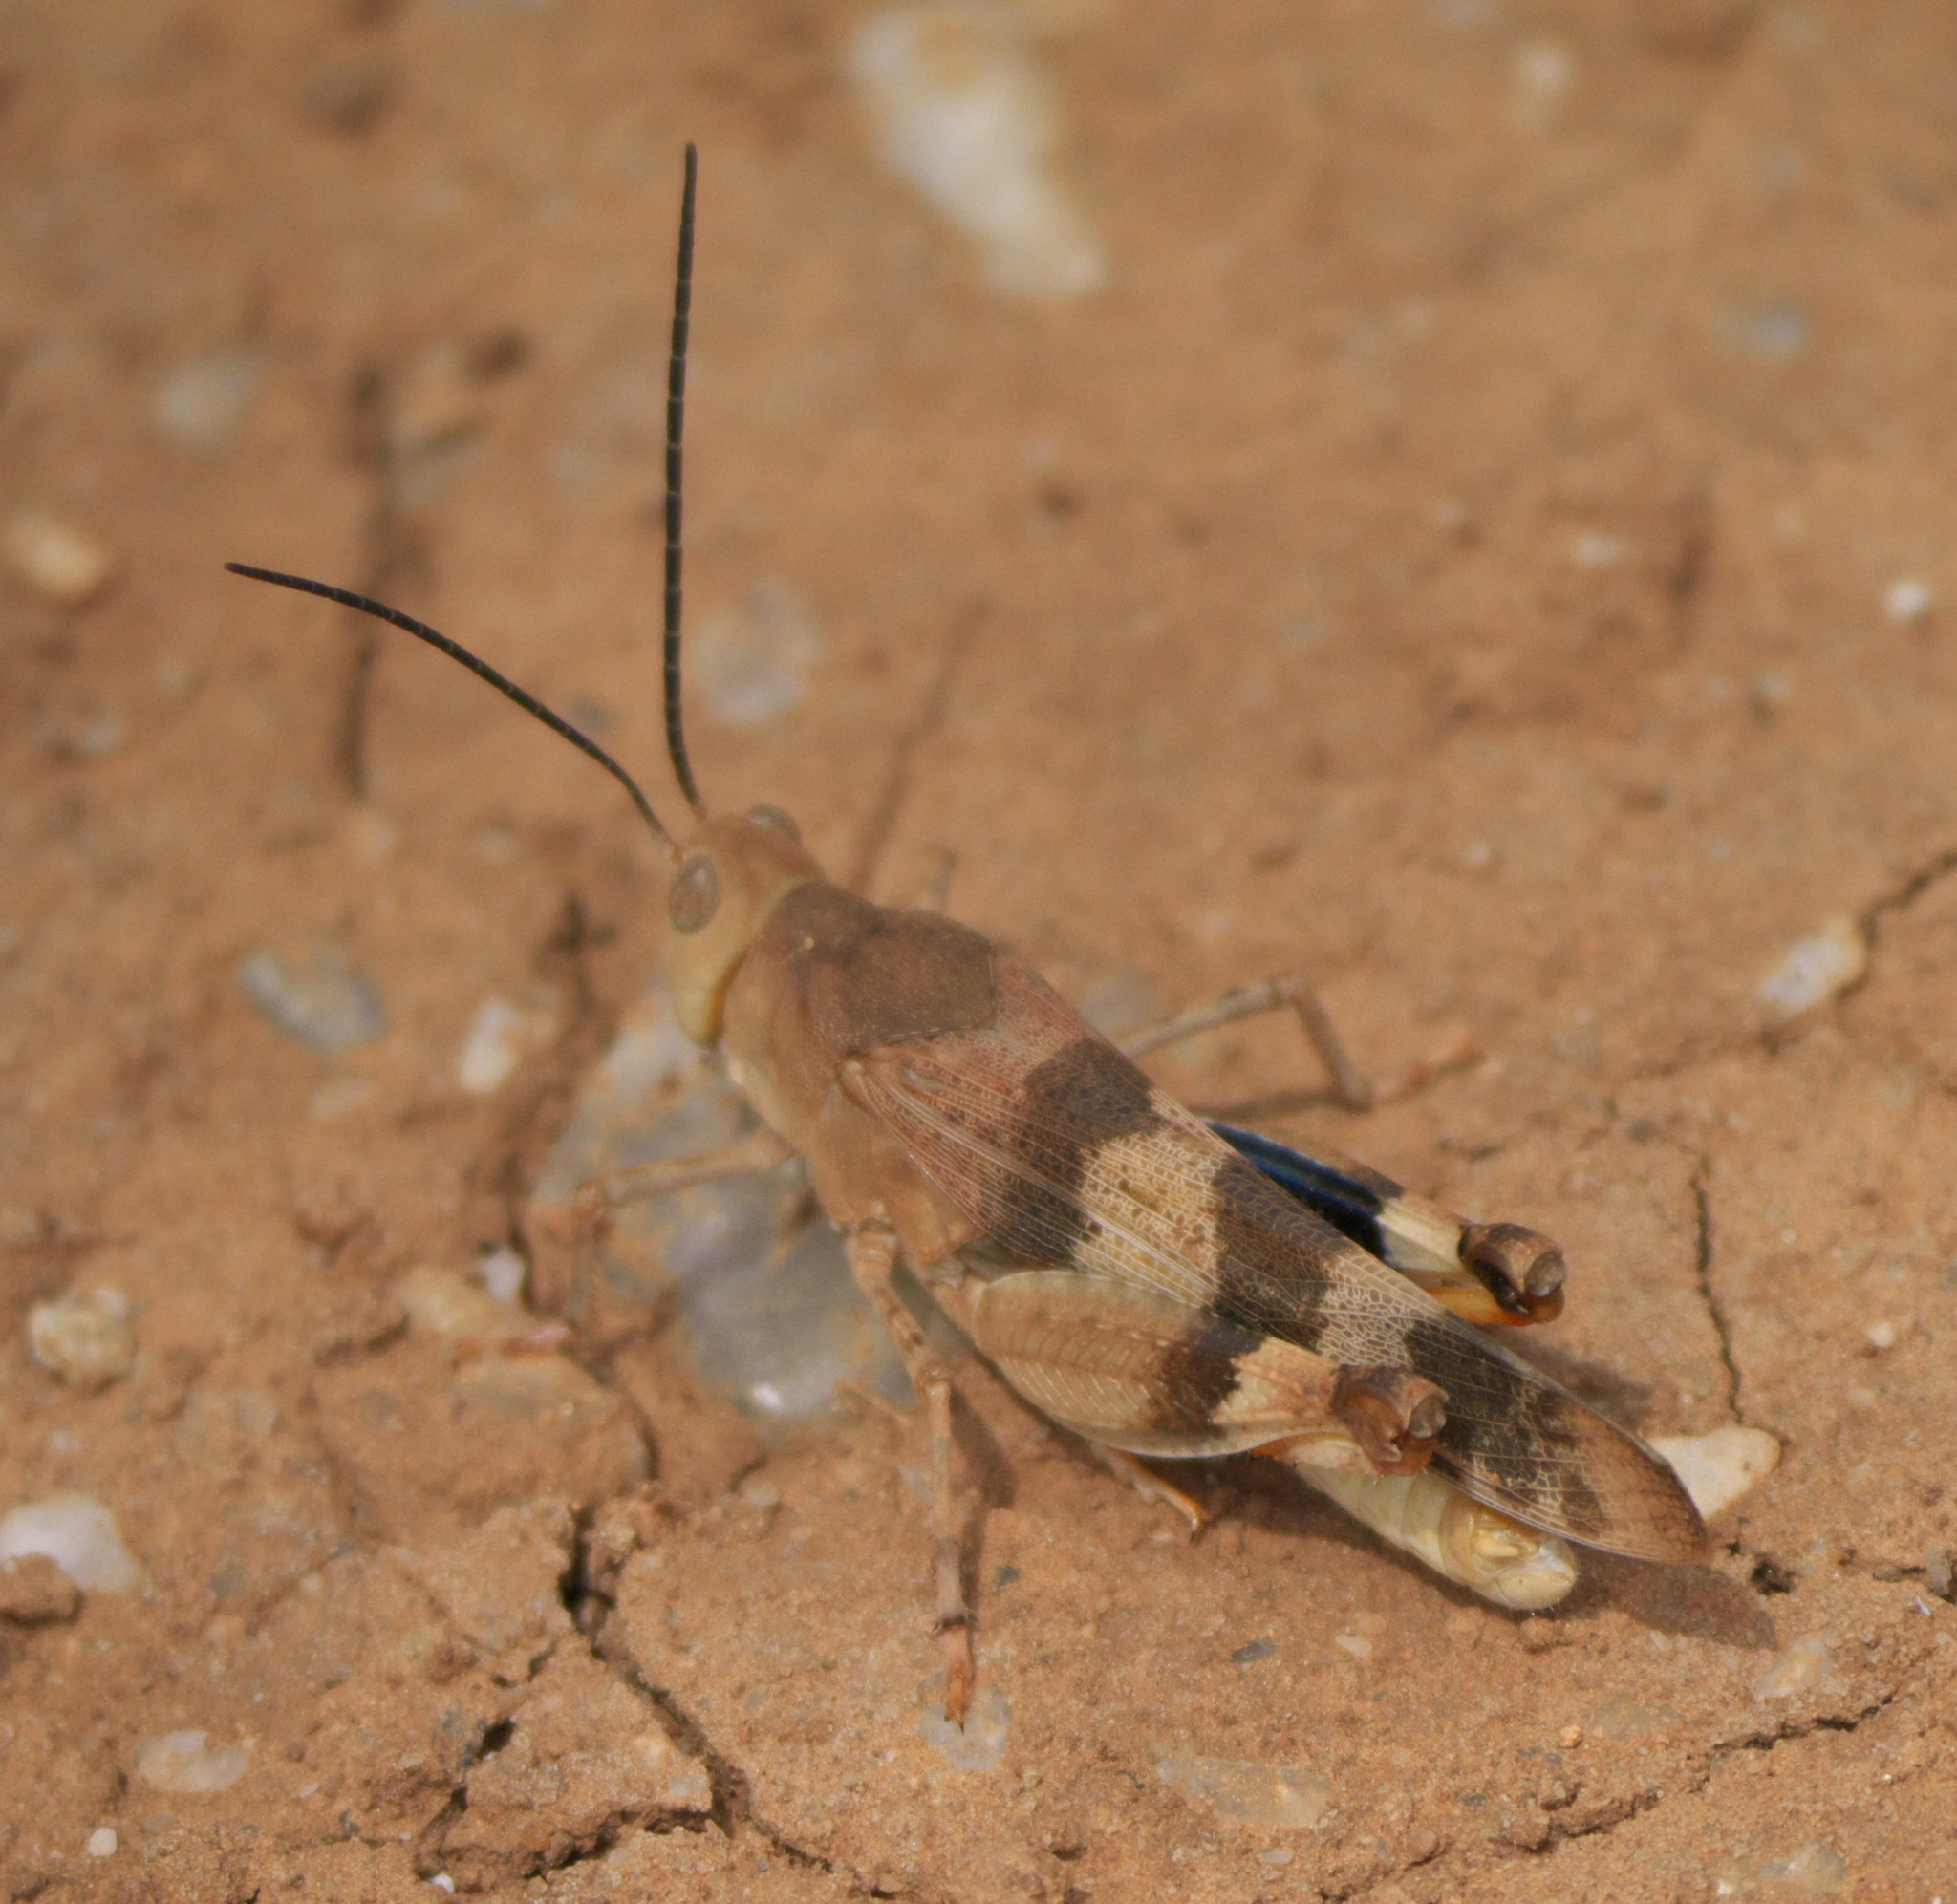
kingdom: Animalia
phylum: Arthropoda
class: Insecta
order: Orthoptera
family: Acrididae
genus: Hadrotettix
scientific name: Hadrotettix trifasciatus
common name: Threebanded grasshopper
